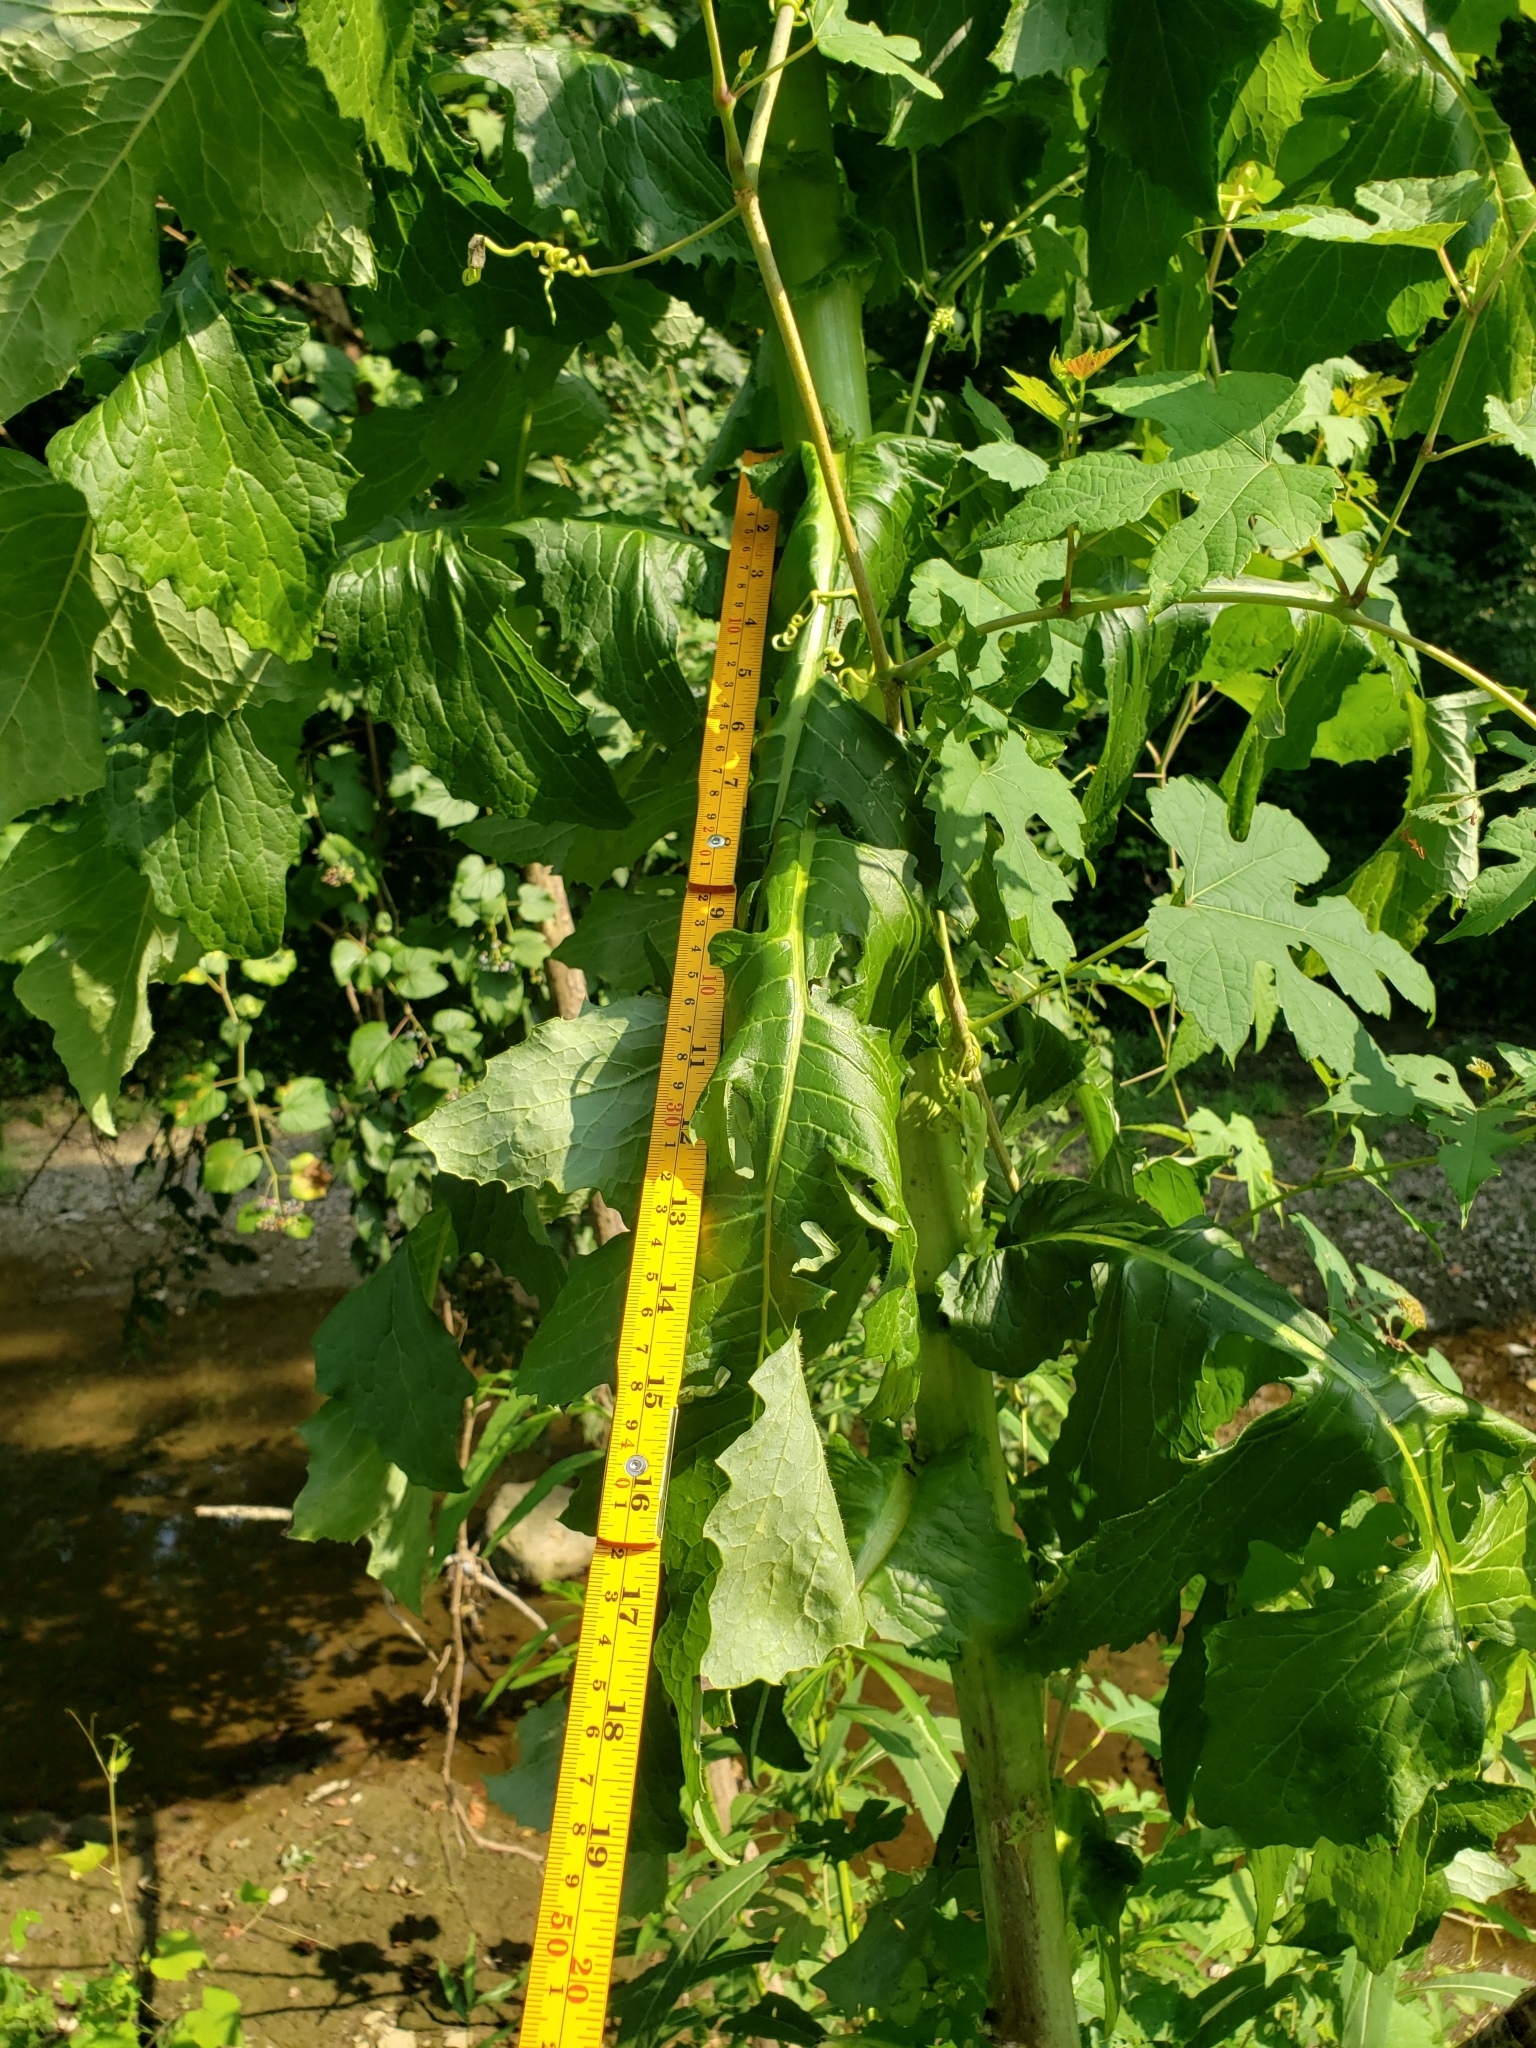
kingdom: Plantae
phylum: Tracheophyta
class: Magnoliopsida
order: Asterales
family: Asteraceae
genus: Lactuca
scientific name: Lactuca biennis
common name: Blue wood lettuce
